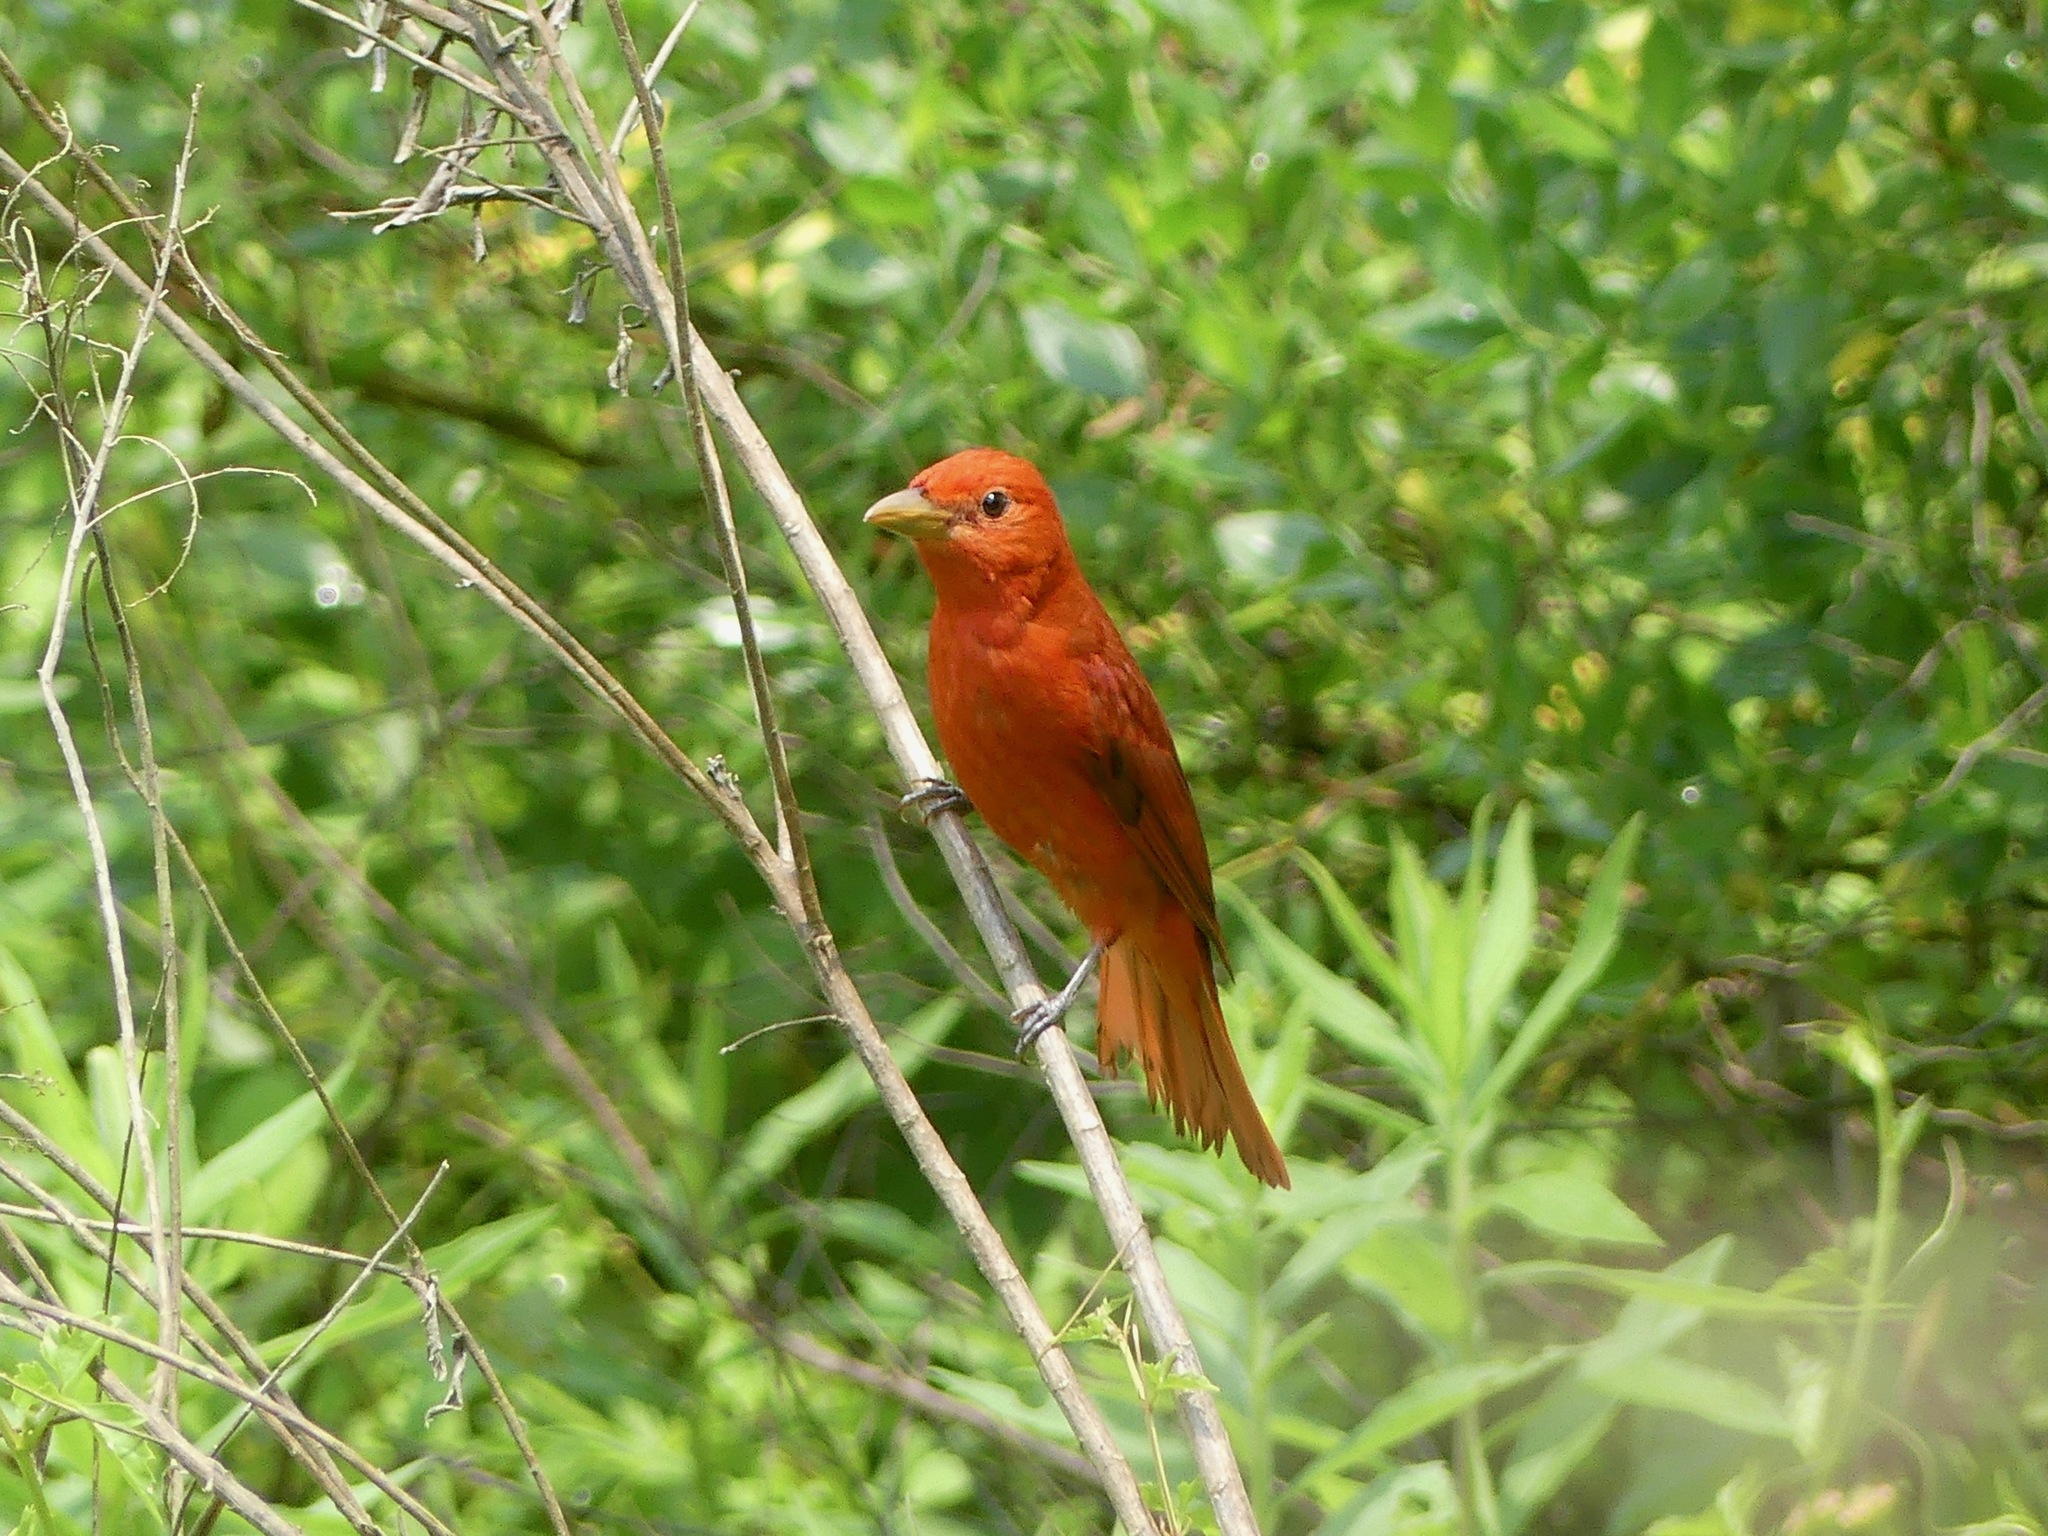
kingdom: Animalia
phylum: Chordata
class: Aves
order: Passeriformes
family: Cardinalidae
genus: Piranga
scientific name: Piranga rubra
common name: Summer tanager
